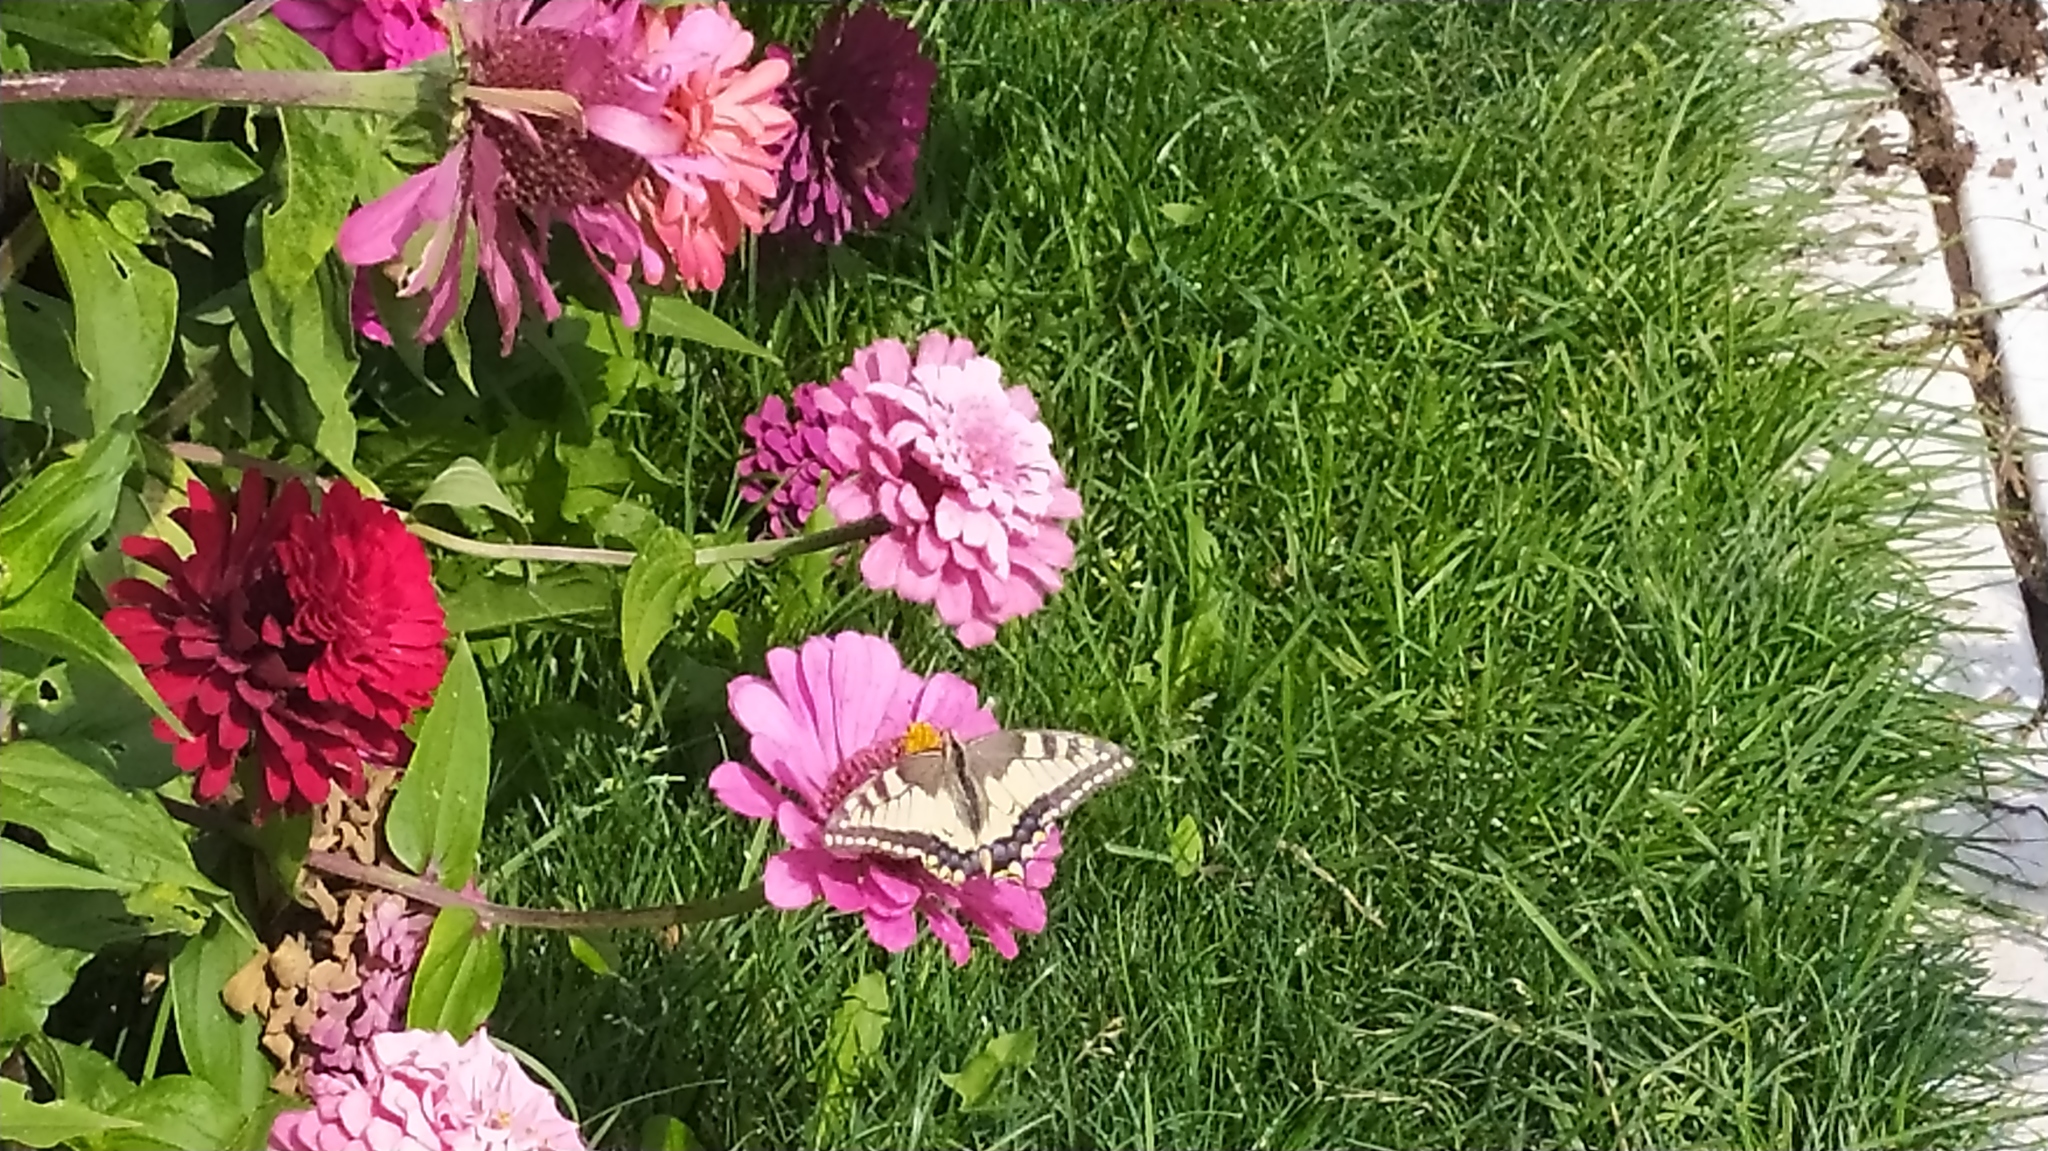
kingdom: Animalia
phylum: Arthropoda
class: Insecta
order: Lepidoptera
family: Papilionidae
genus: Papilio
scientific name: Papilio machaon
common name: Swallowtail
